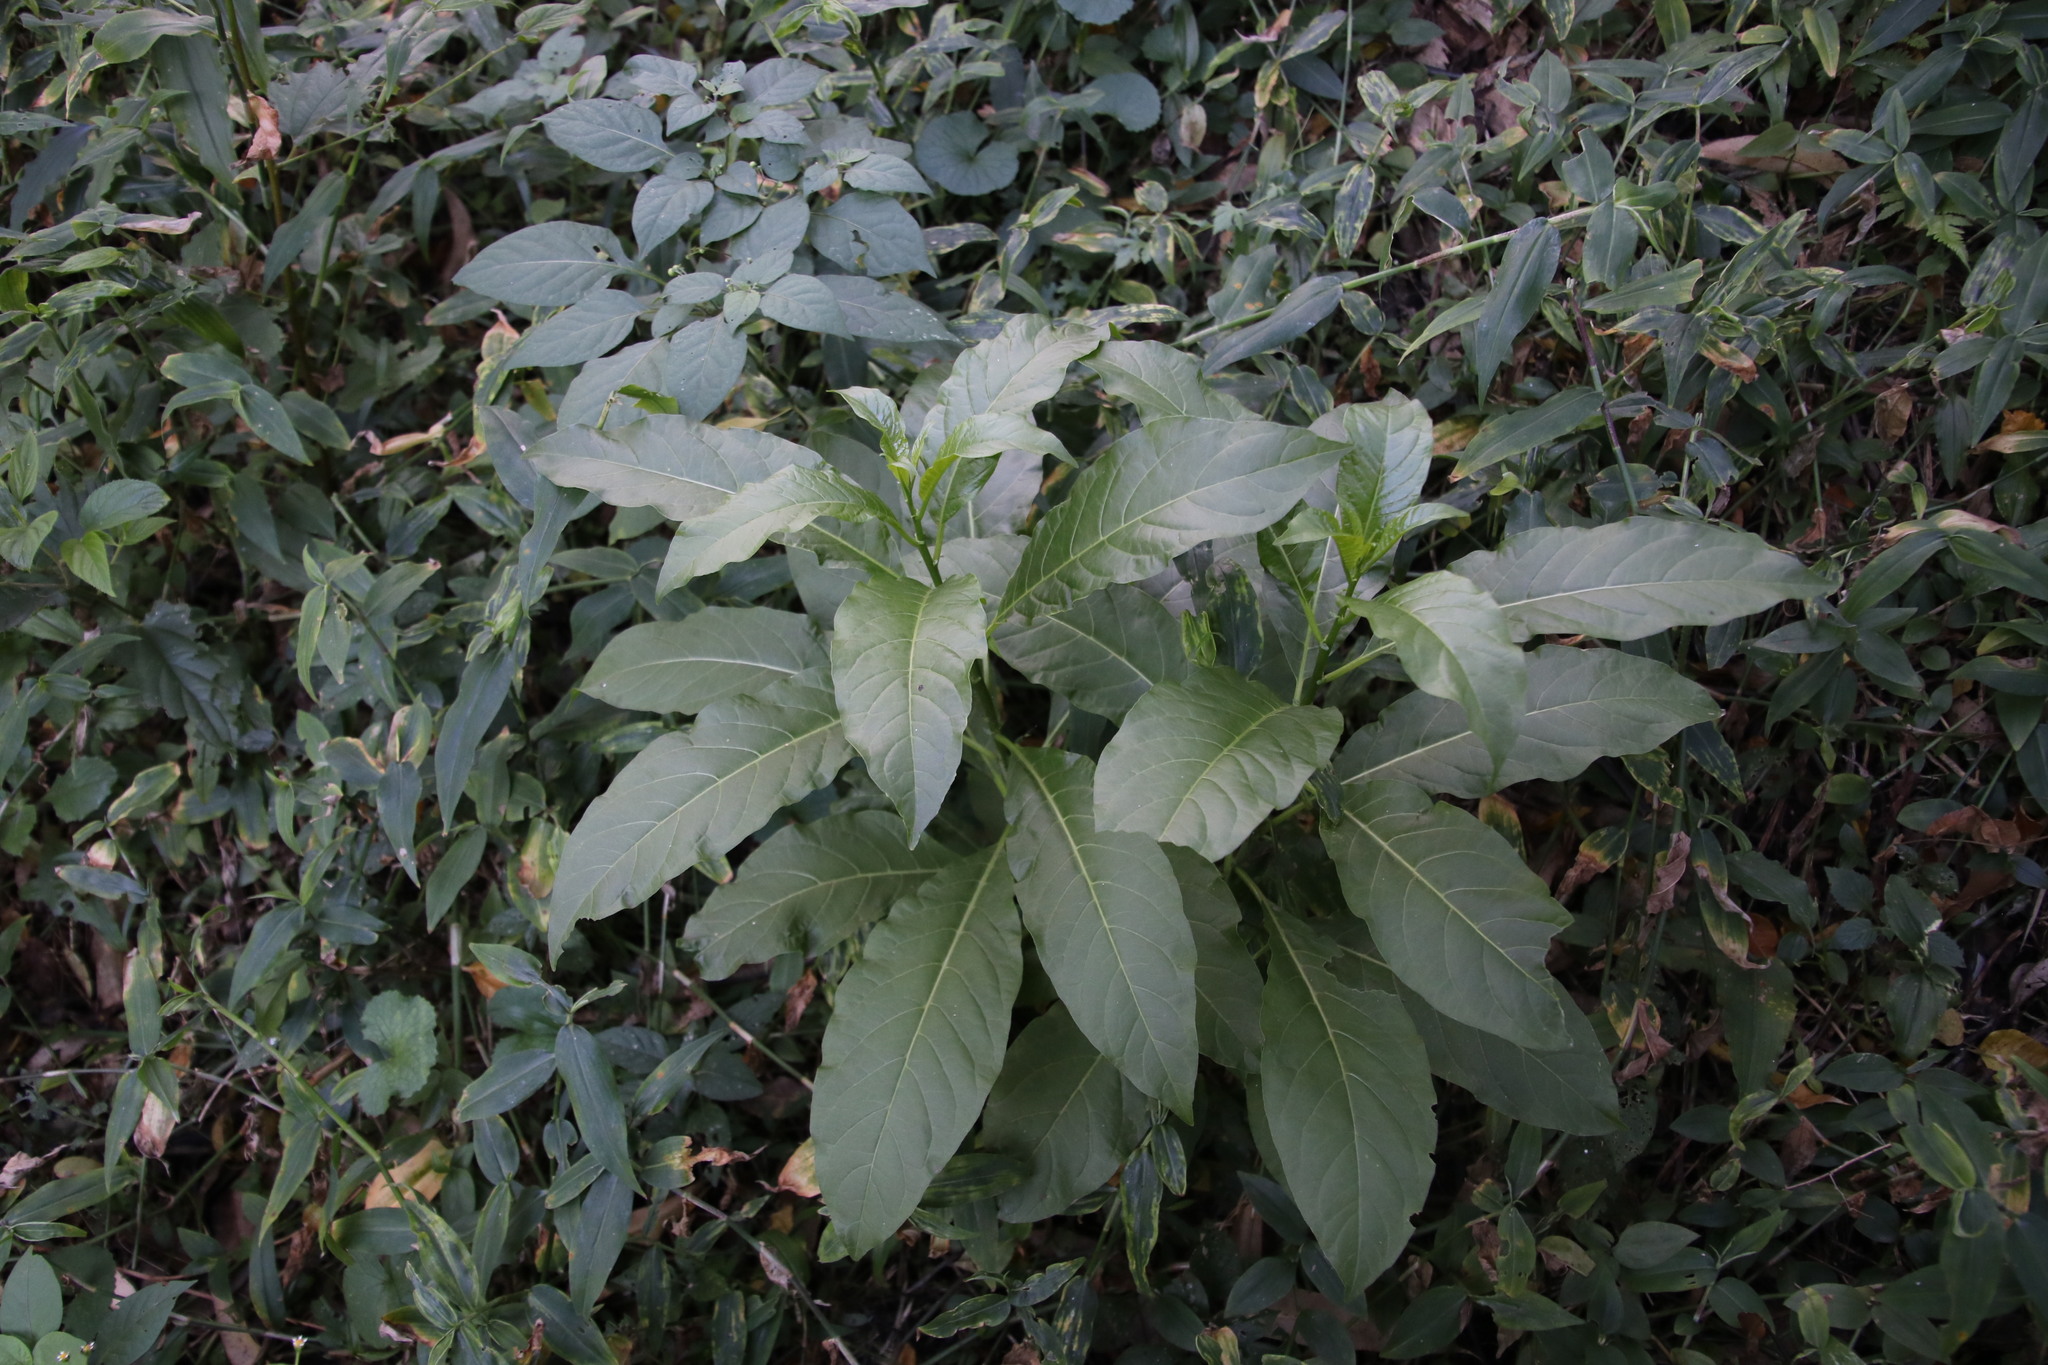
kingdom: Plantae
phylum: Tracheophyta
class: Magnoliopsida
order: Solanales
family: Solanaceae
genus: Cestrum
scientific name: Cestrum nocturnum
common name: Night jessamine
